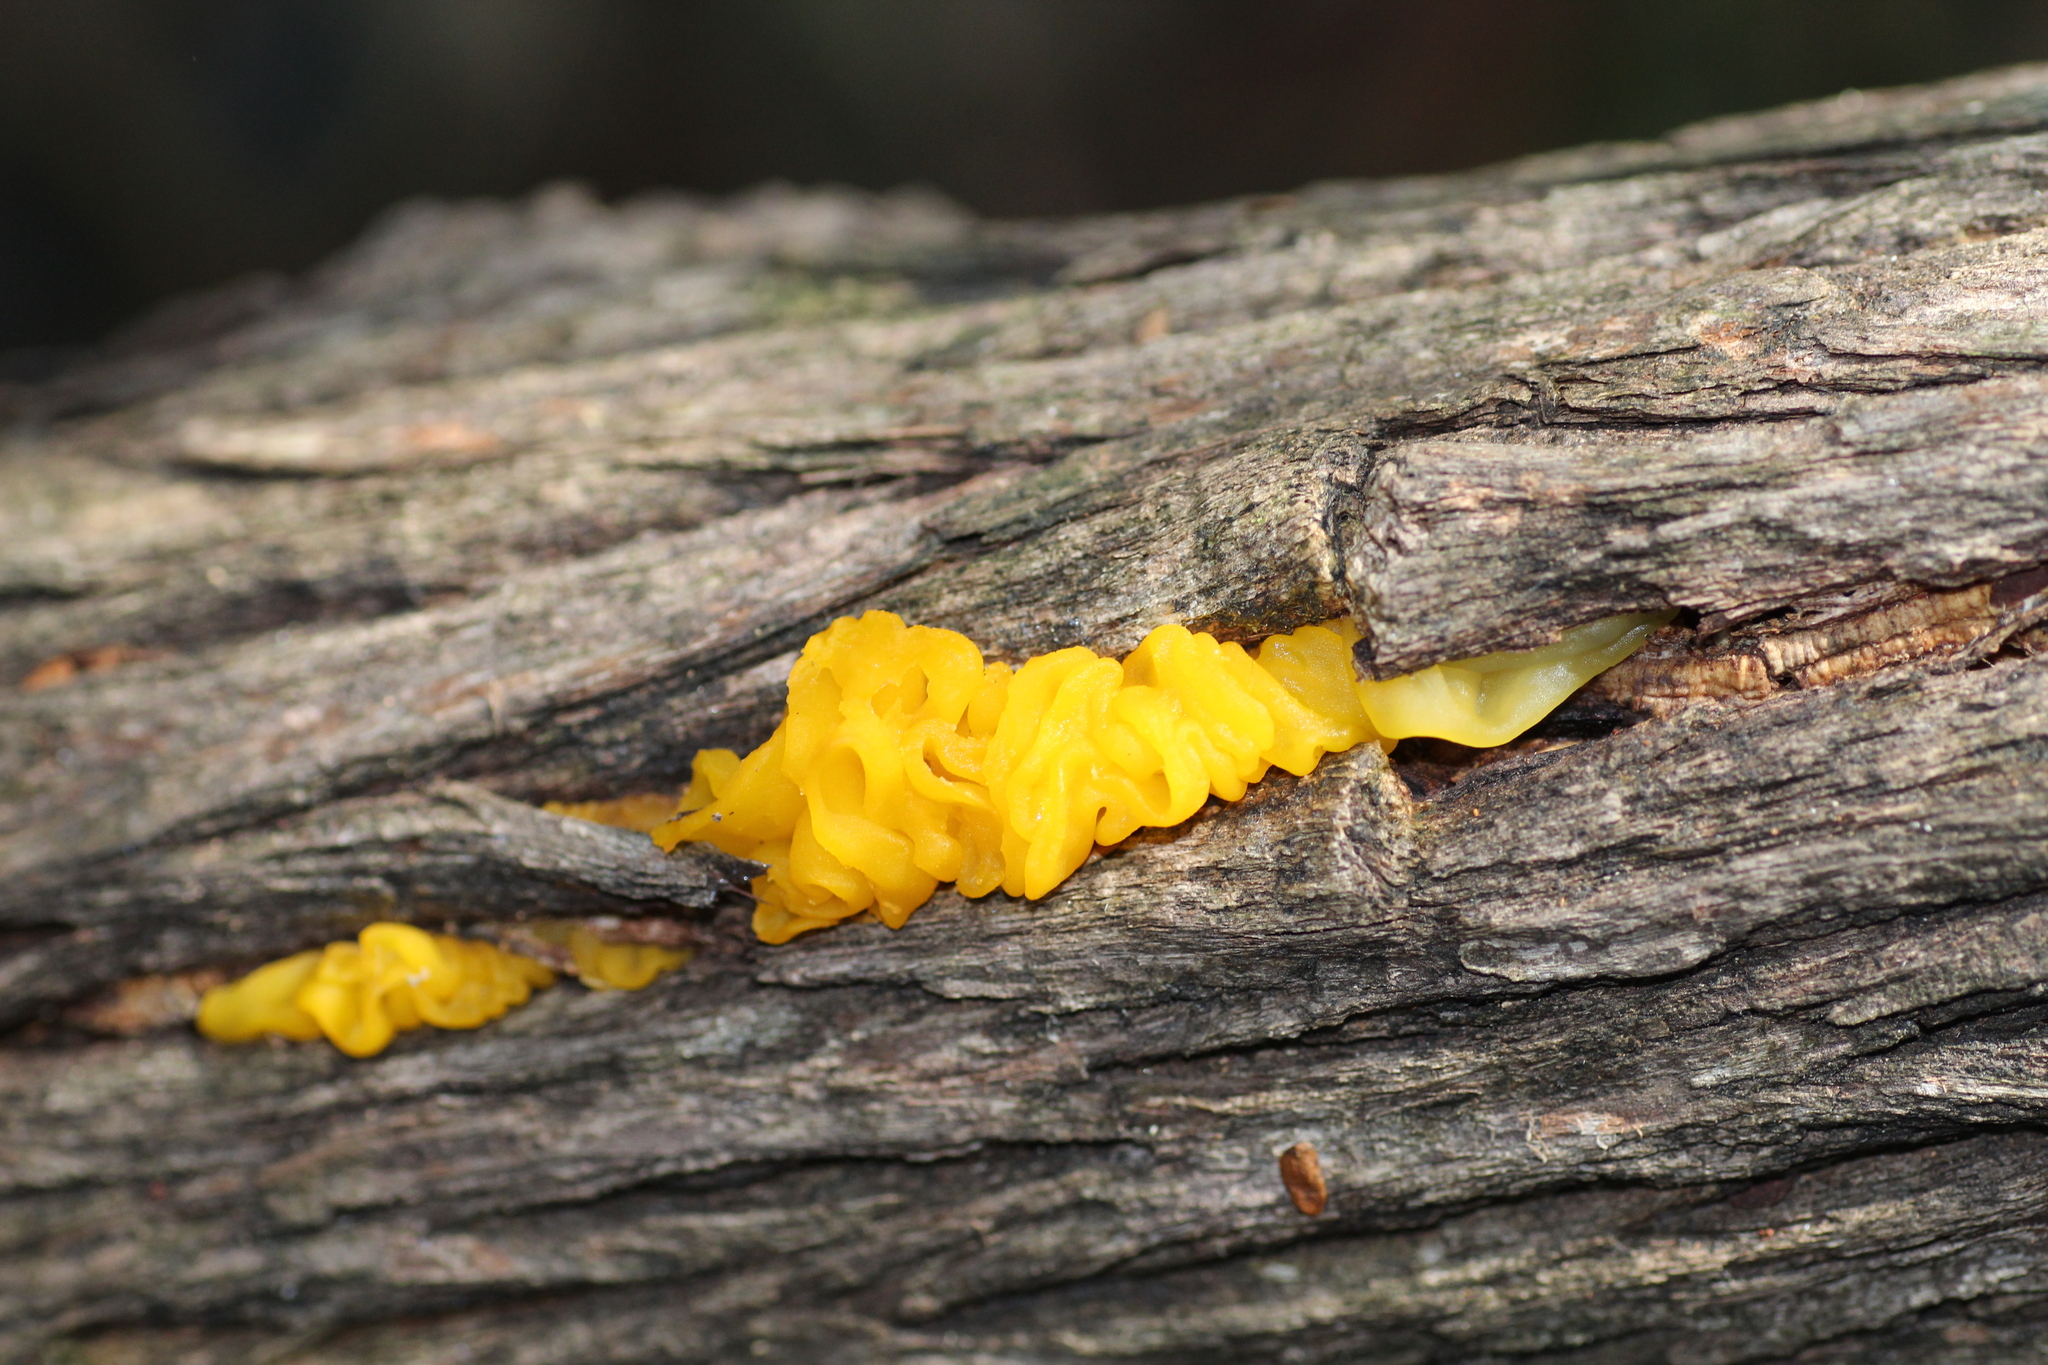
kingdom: Fungi
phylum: Basidiomycota
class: Tremellomycetes
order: Tremellales
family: Tremellaceae
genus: Tremella
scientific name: Tremella mesenterica
